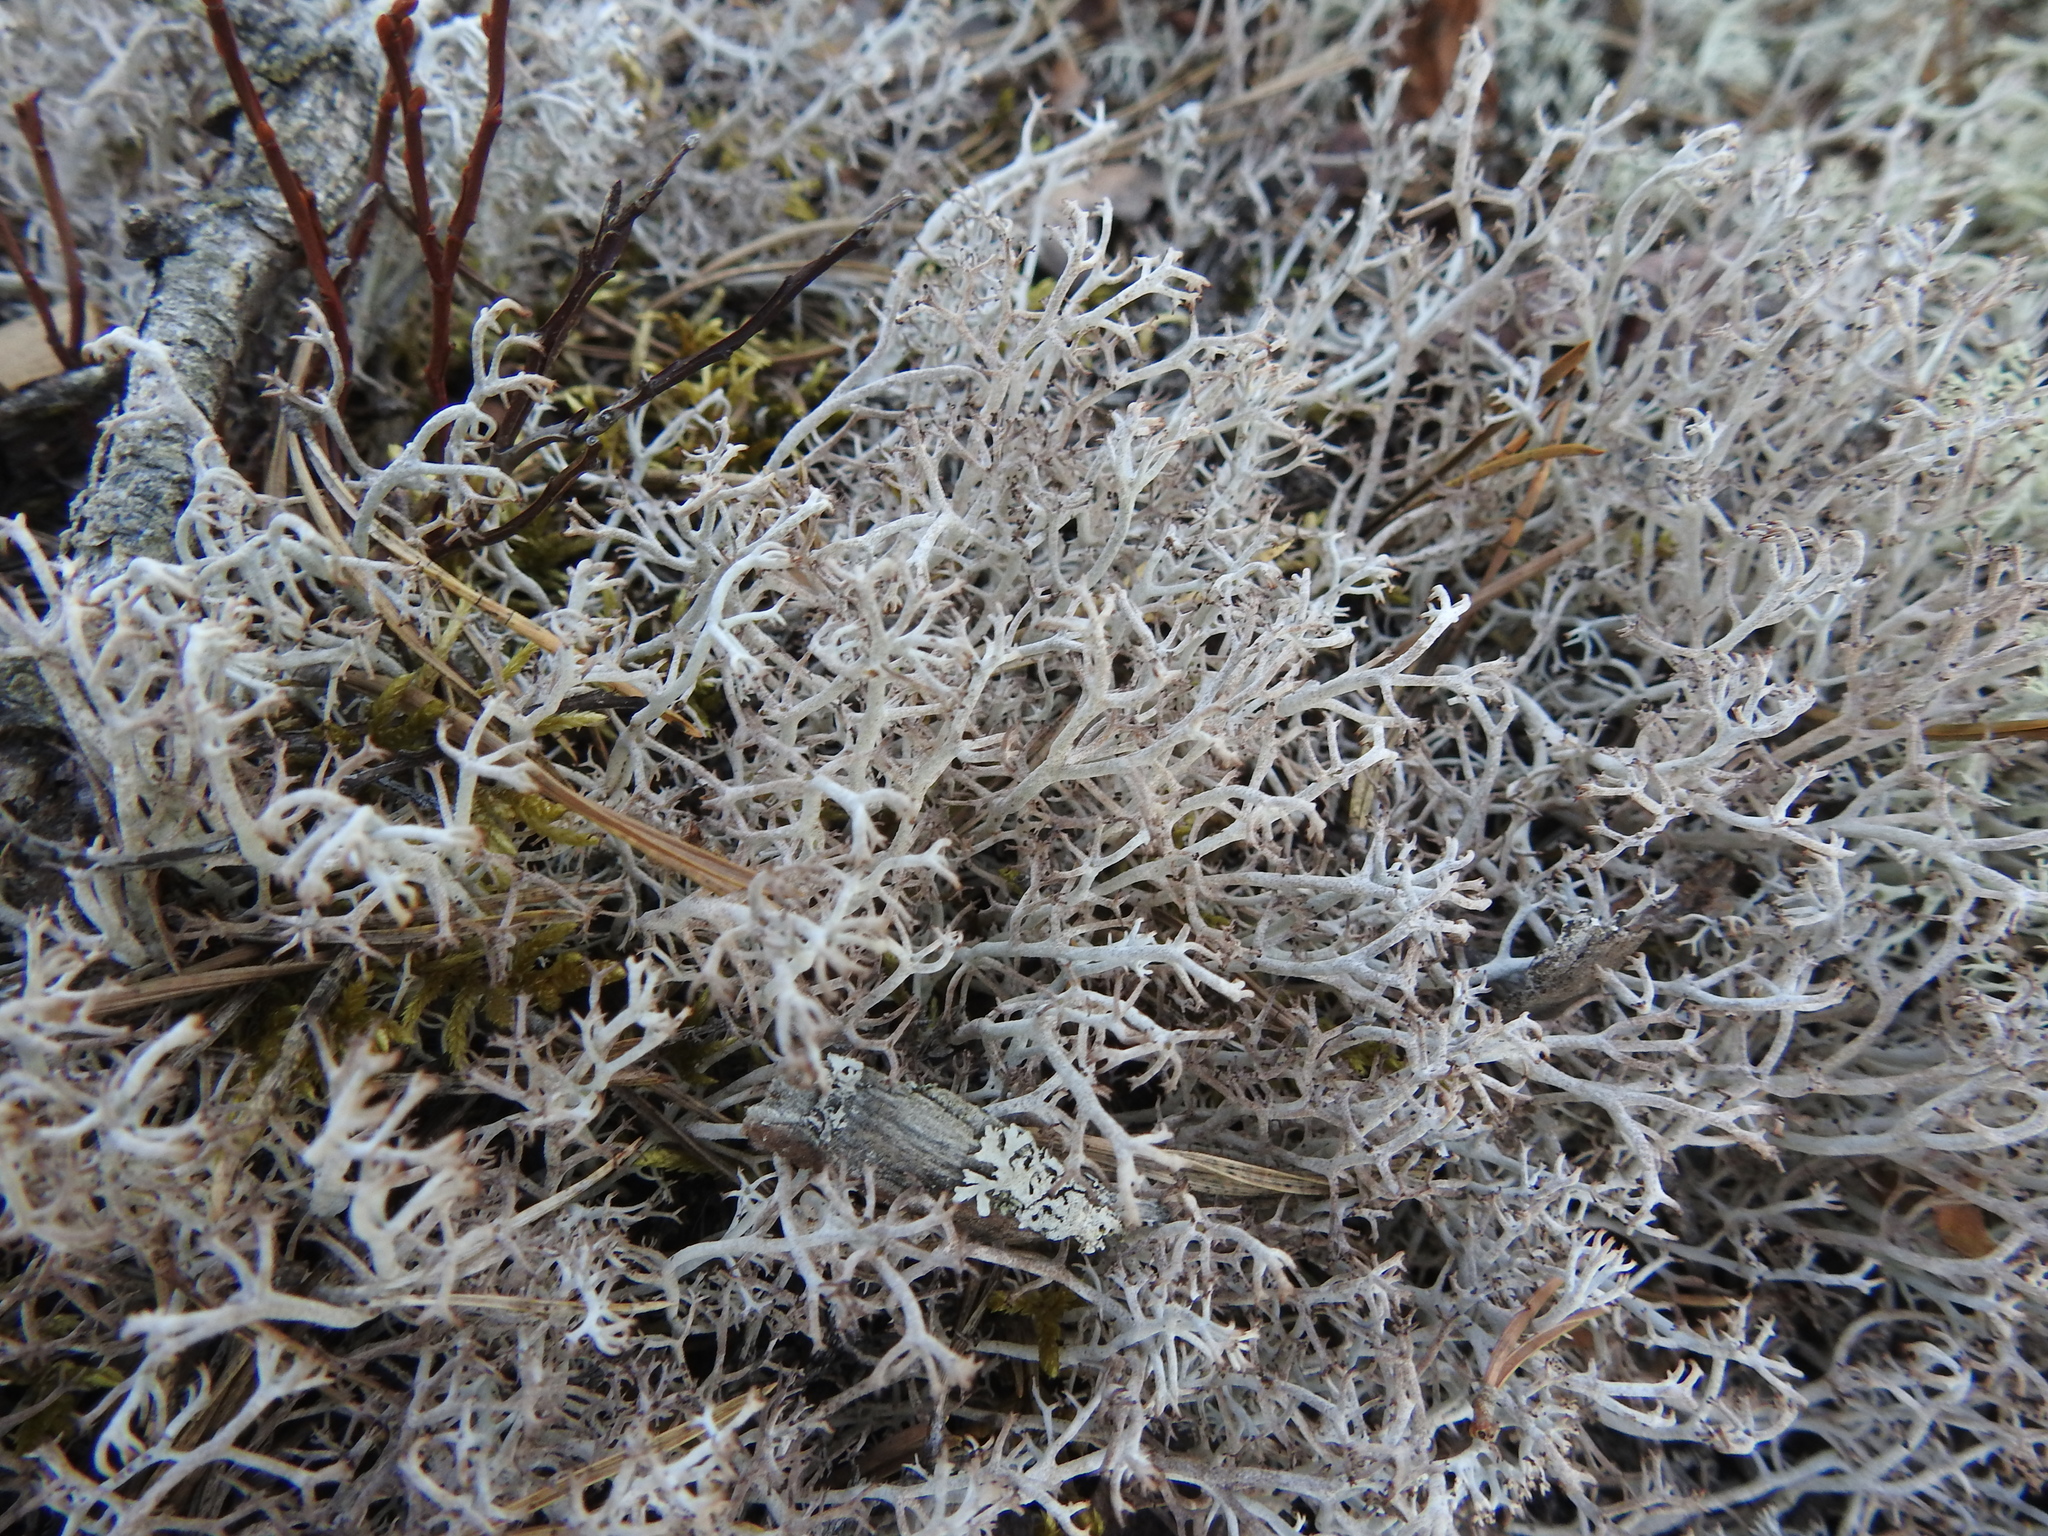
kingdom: Fungi
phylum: Ascomycota
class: Lecanoromycetes
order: Lecanorales
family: Cladoniaceae
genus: Cladonia
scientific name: Cladonia rangiferina
